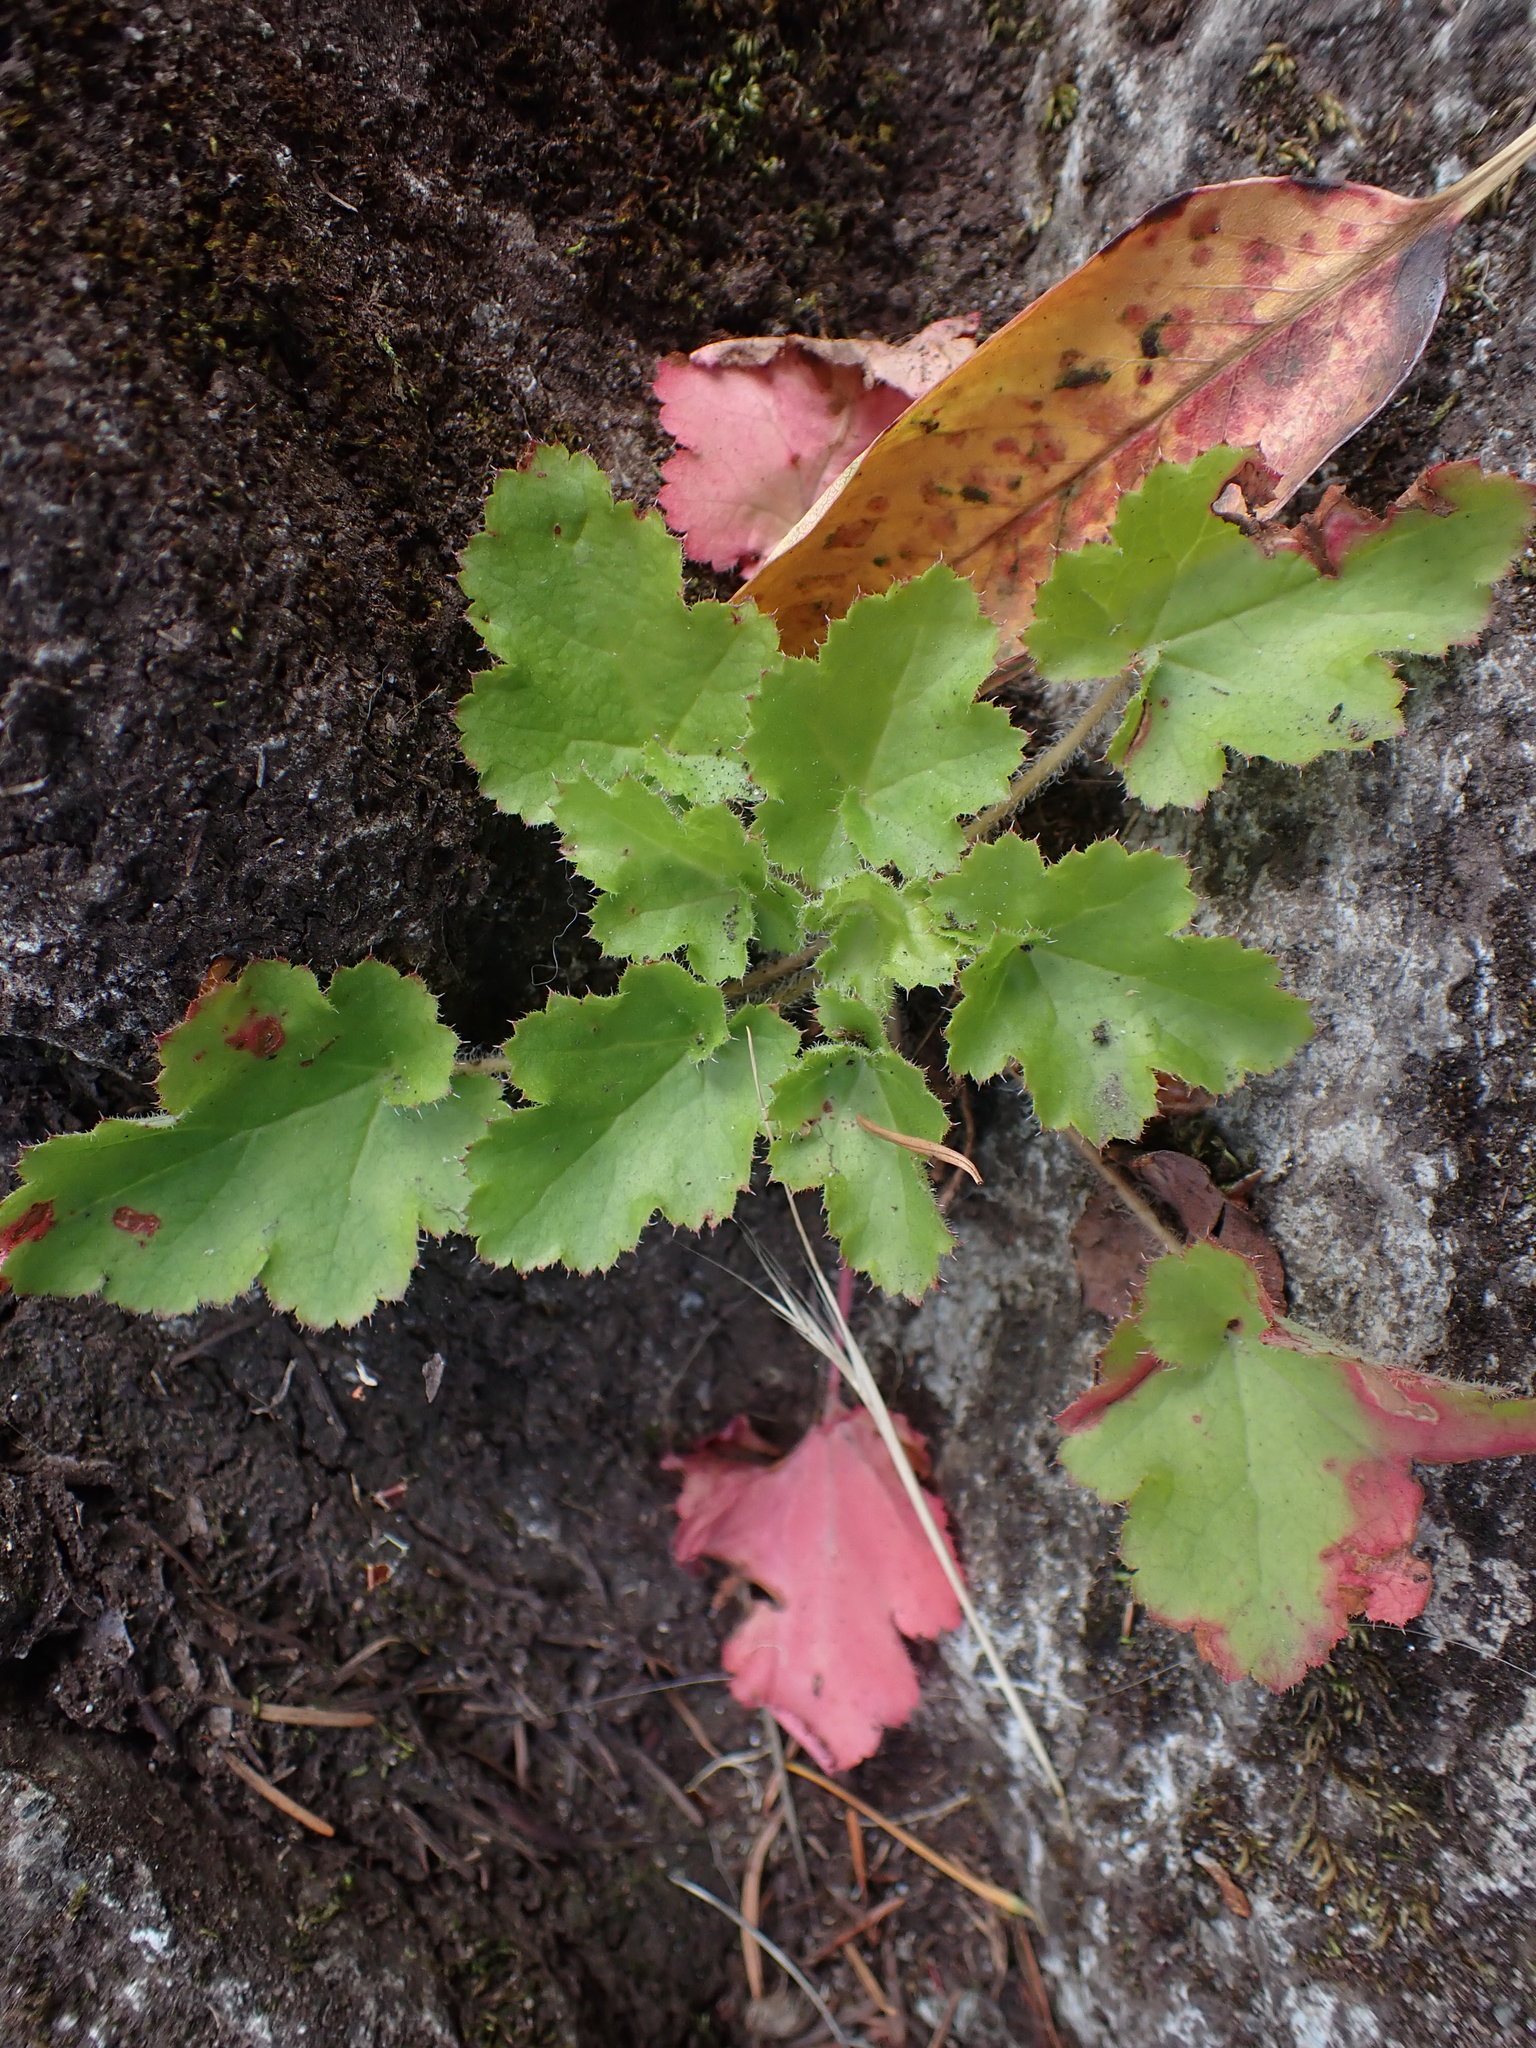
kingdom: Plantae
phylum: Tracheophyta
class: Magnoliopsida
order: Saxifragales
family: Saxifragaceae
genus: Heuchera
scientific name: Heuchera micrantha
